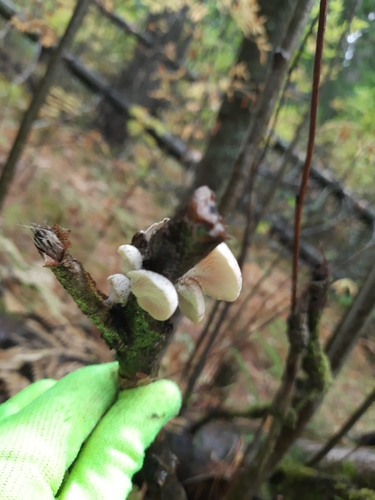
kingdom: Fungi
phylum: Basidiomycota
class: Agaricomycetes
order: Agaricales
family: Pleurotaceae
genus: Pleurotus
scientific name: Pleurotus pulmonarius
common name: Pale oyster
